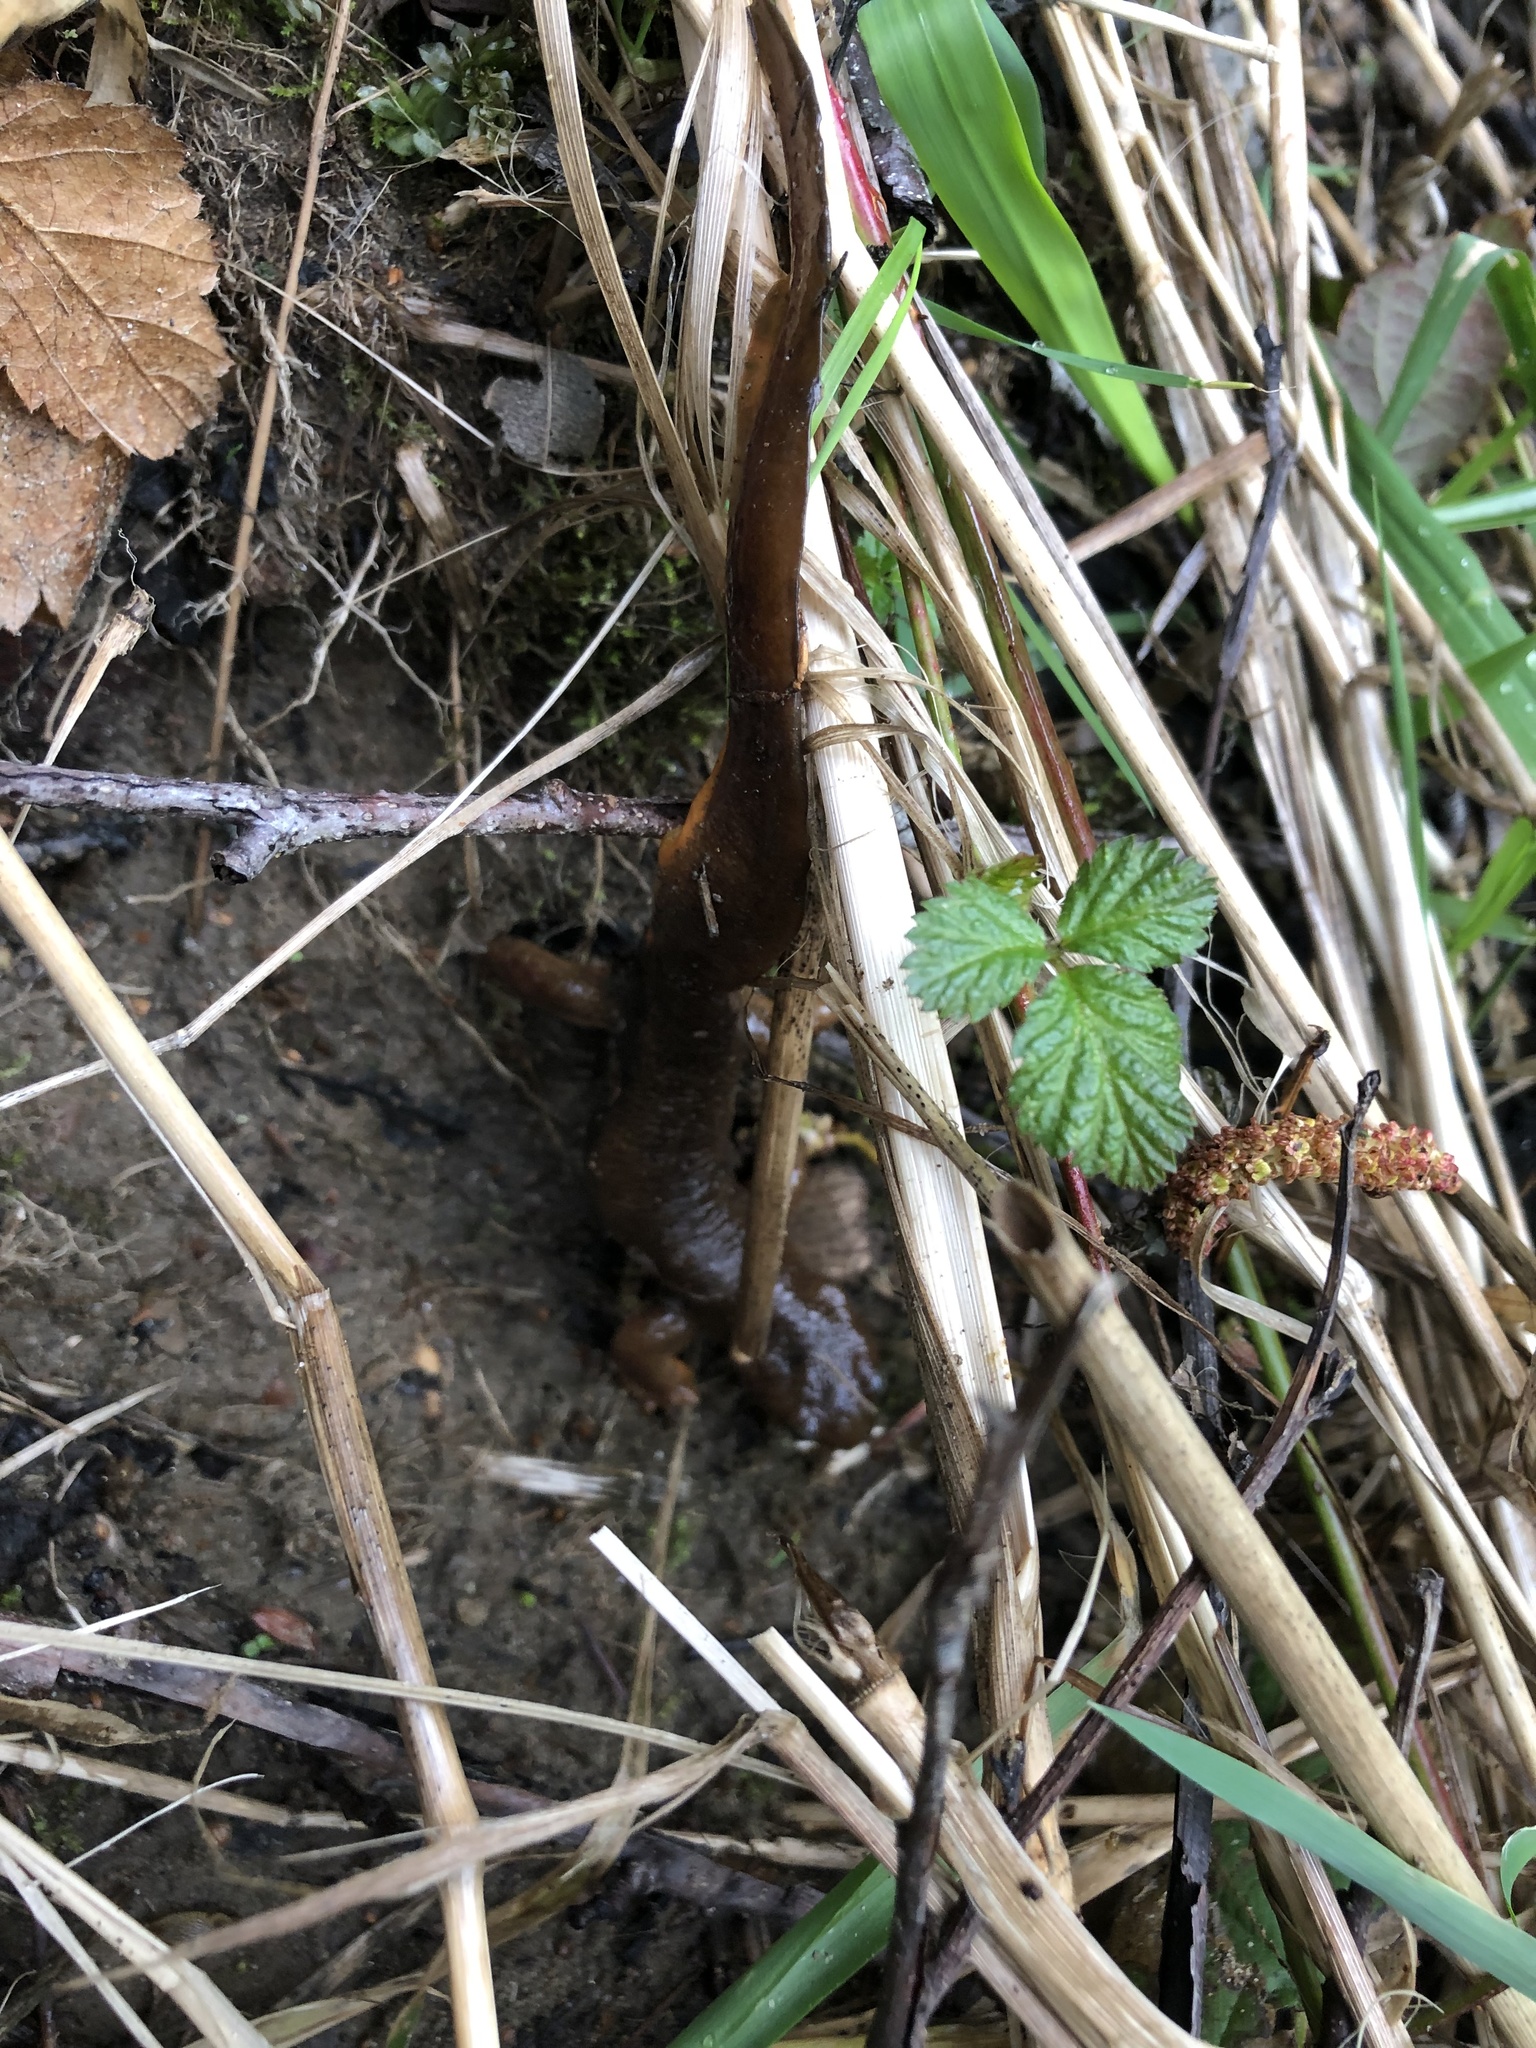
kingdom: Animalia
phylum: Chordata
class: Amphibia
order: Caudata
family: Salamandridae
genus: Taricha
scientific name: Taricha granulosa
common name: Roughskin newt
